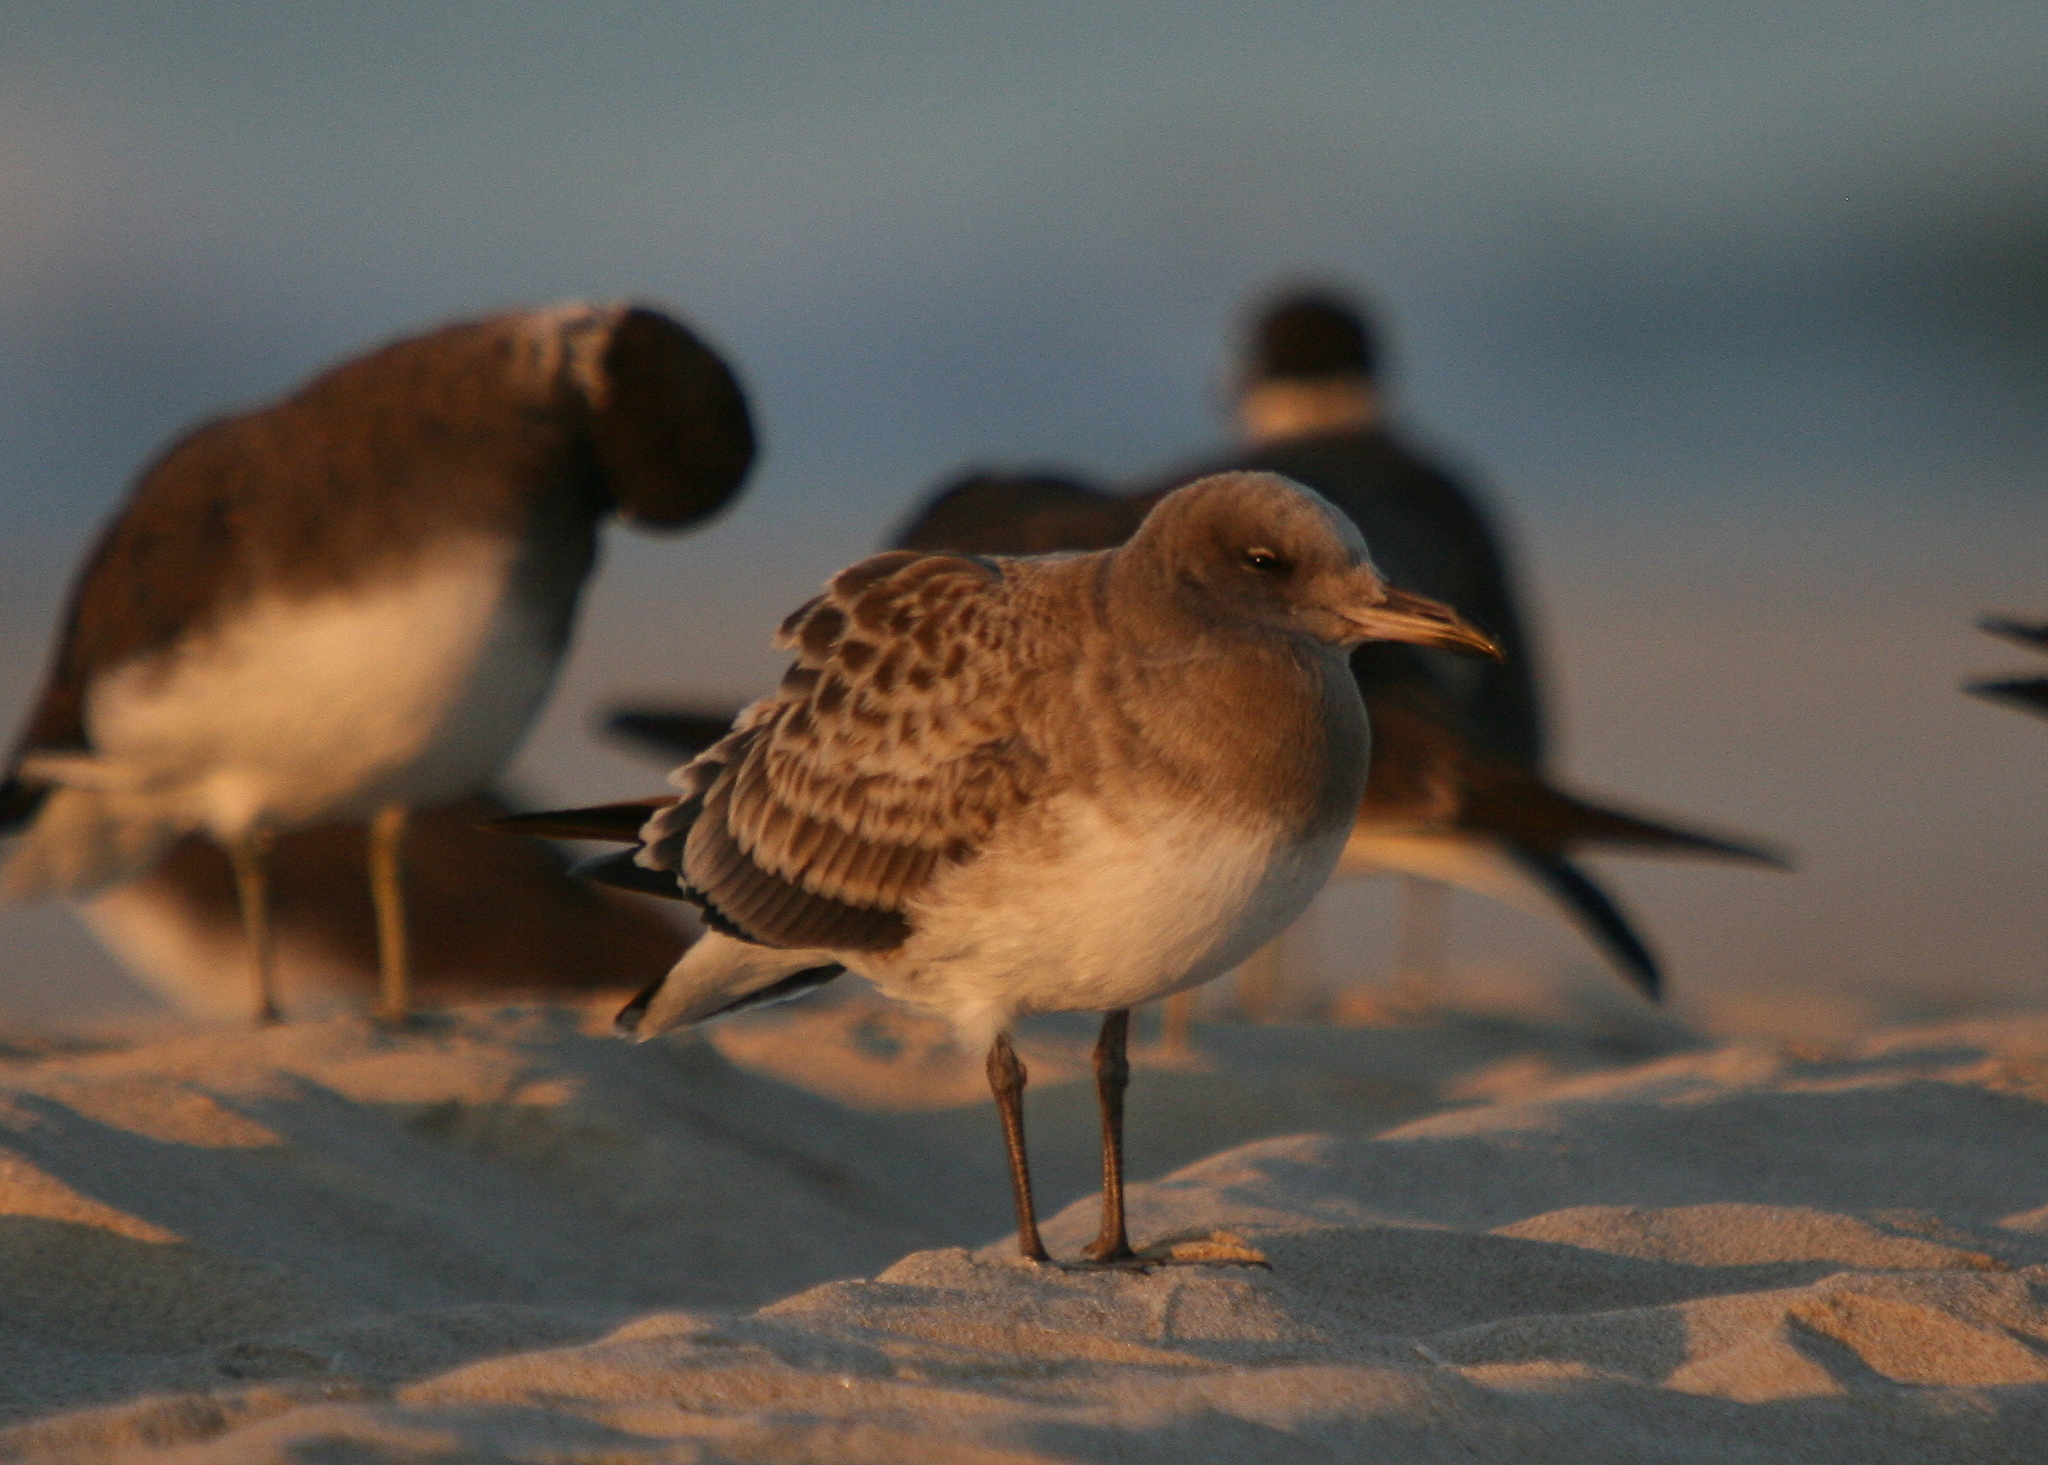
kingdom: Animalia
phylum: Chordata
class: Aves
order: Charadriiformes
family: Laridae
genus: Ichthyaetus
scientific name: Ichthyaetus hemprichii
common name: Sooty gull
